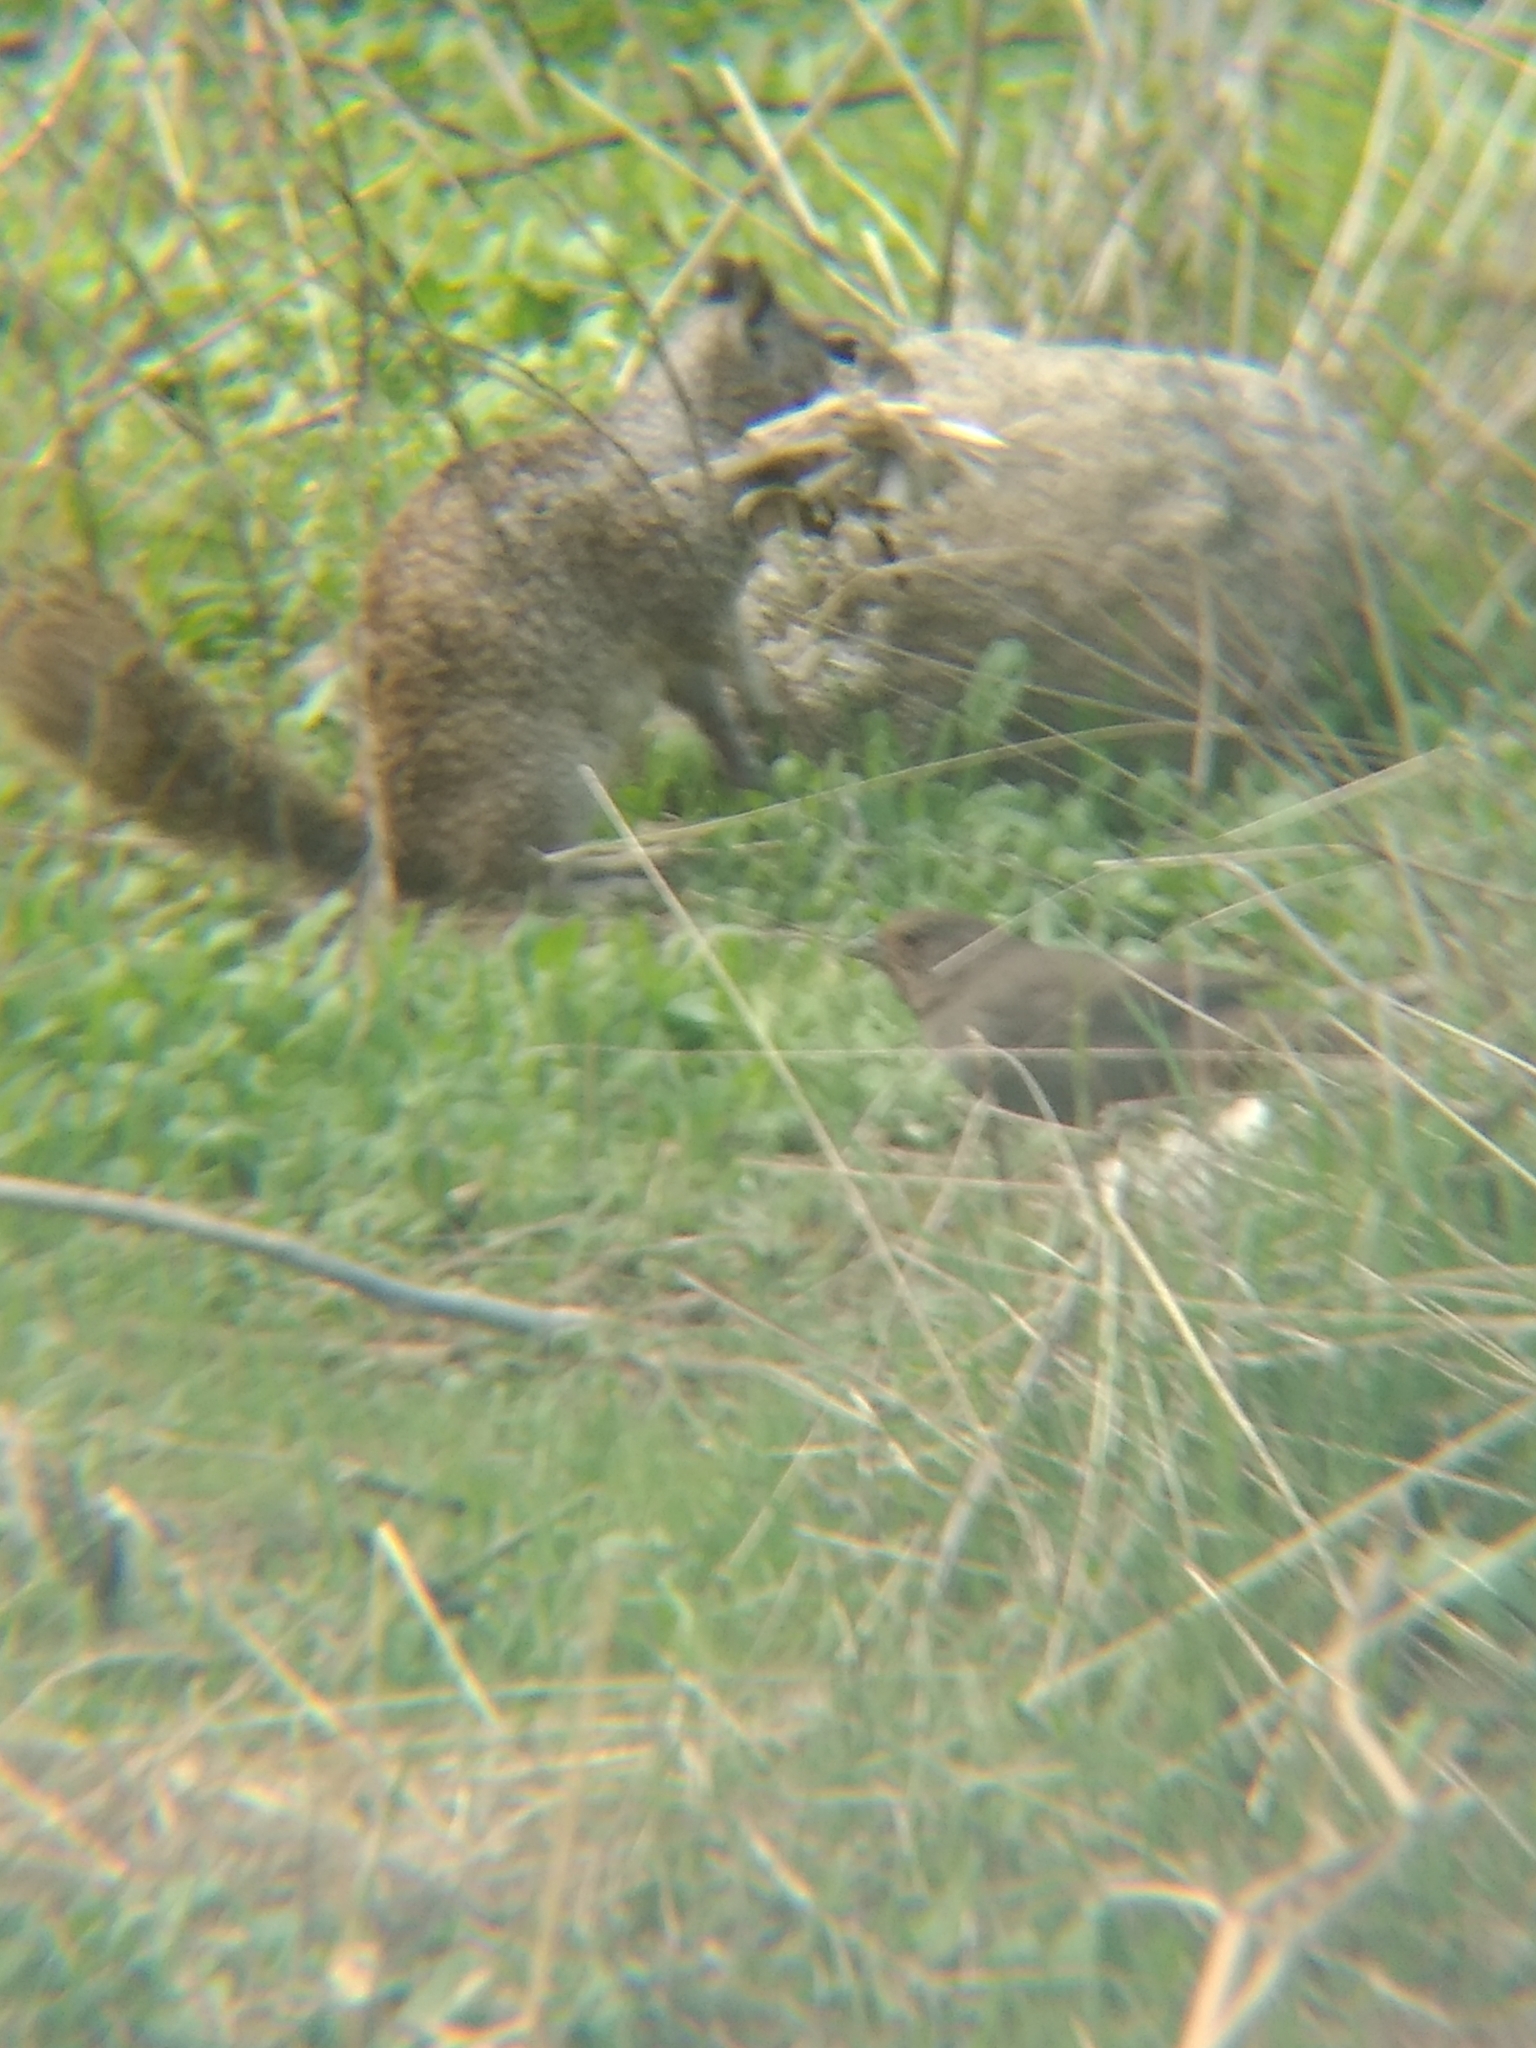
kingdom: Animalia
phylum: Chordata
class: Mammalia
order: Rodentia
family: Sciuridae
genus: Otospermophilus
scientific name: Otospermophilus beecheyi
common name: California ground squirrel
